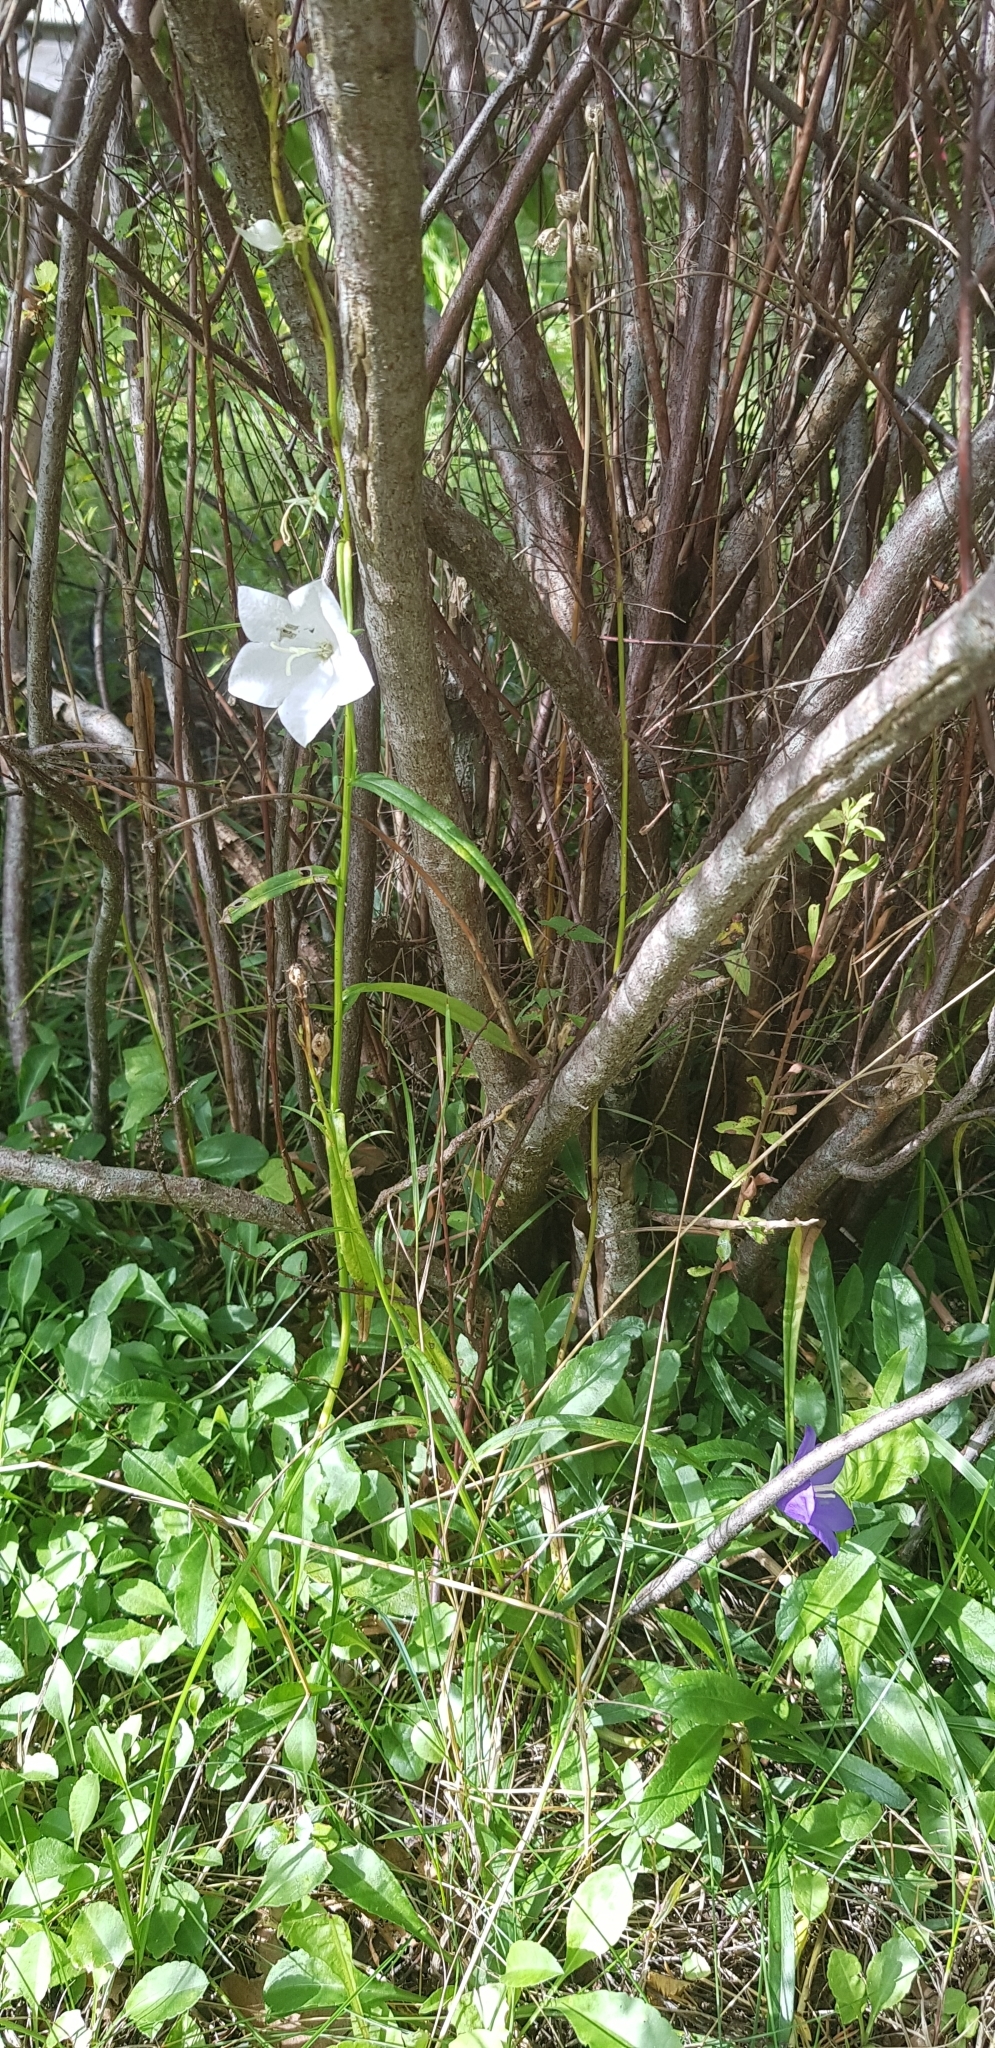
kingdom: Plantae
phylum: Tracheophyta
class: Magnoliopsida
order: Asterales
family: Campanulaceae
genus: Campanula
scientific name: Campanula persicifolia
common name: Peach-leaved bellflower
